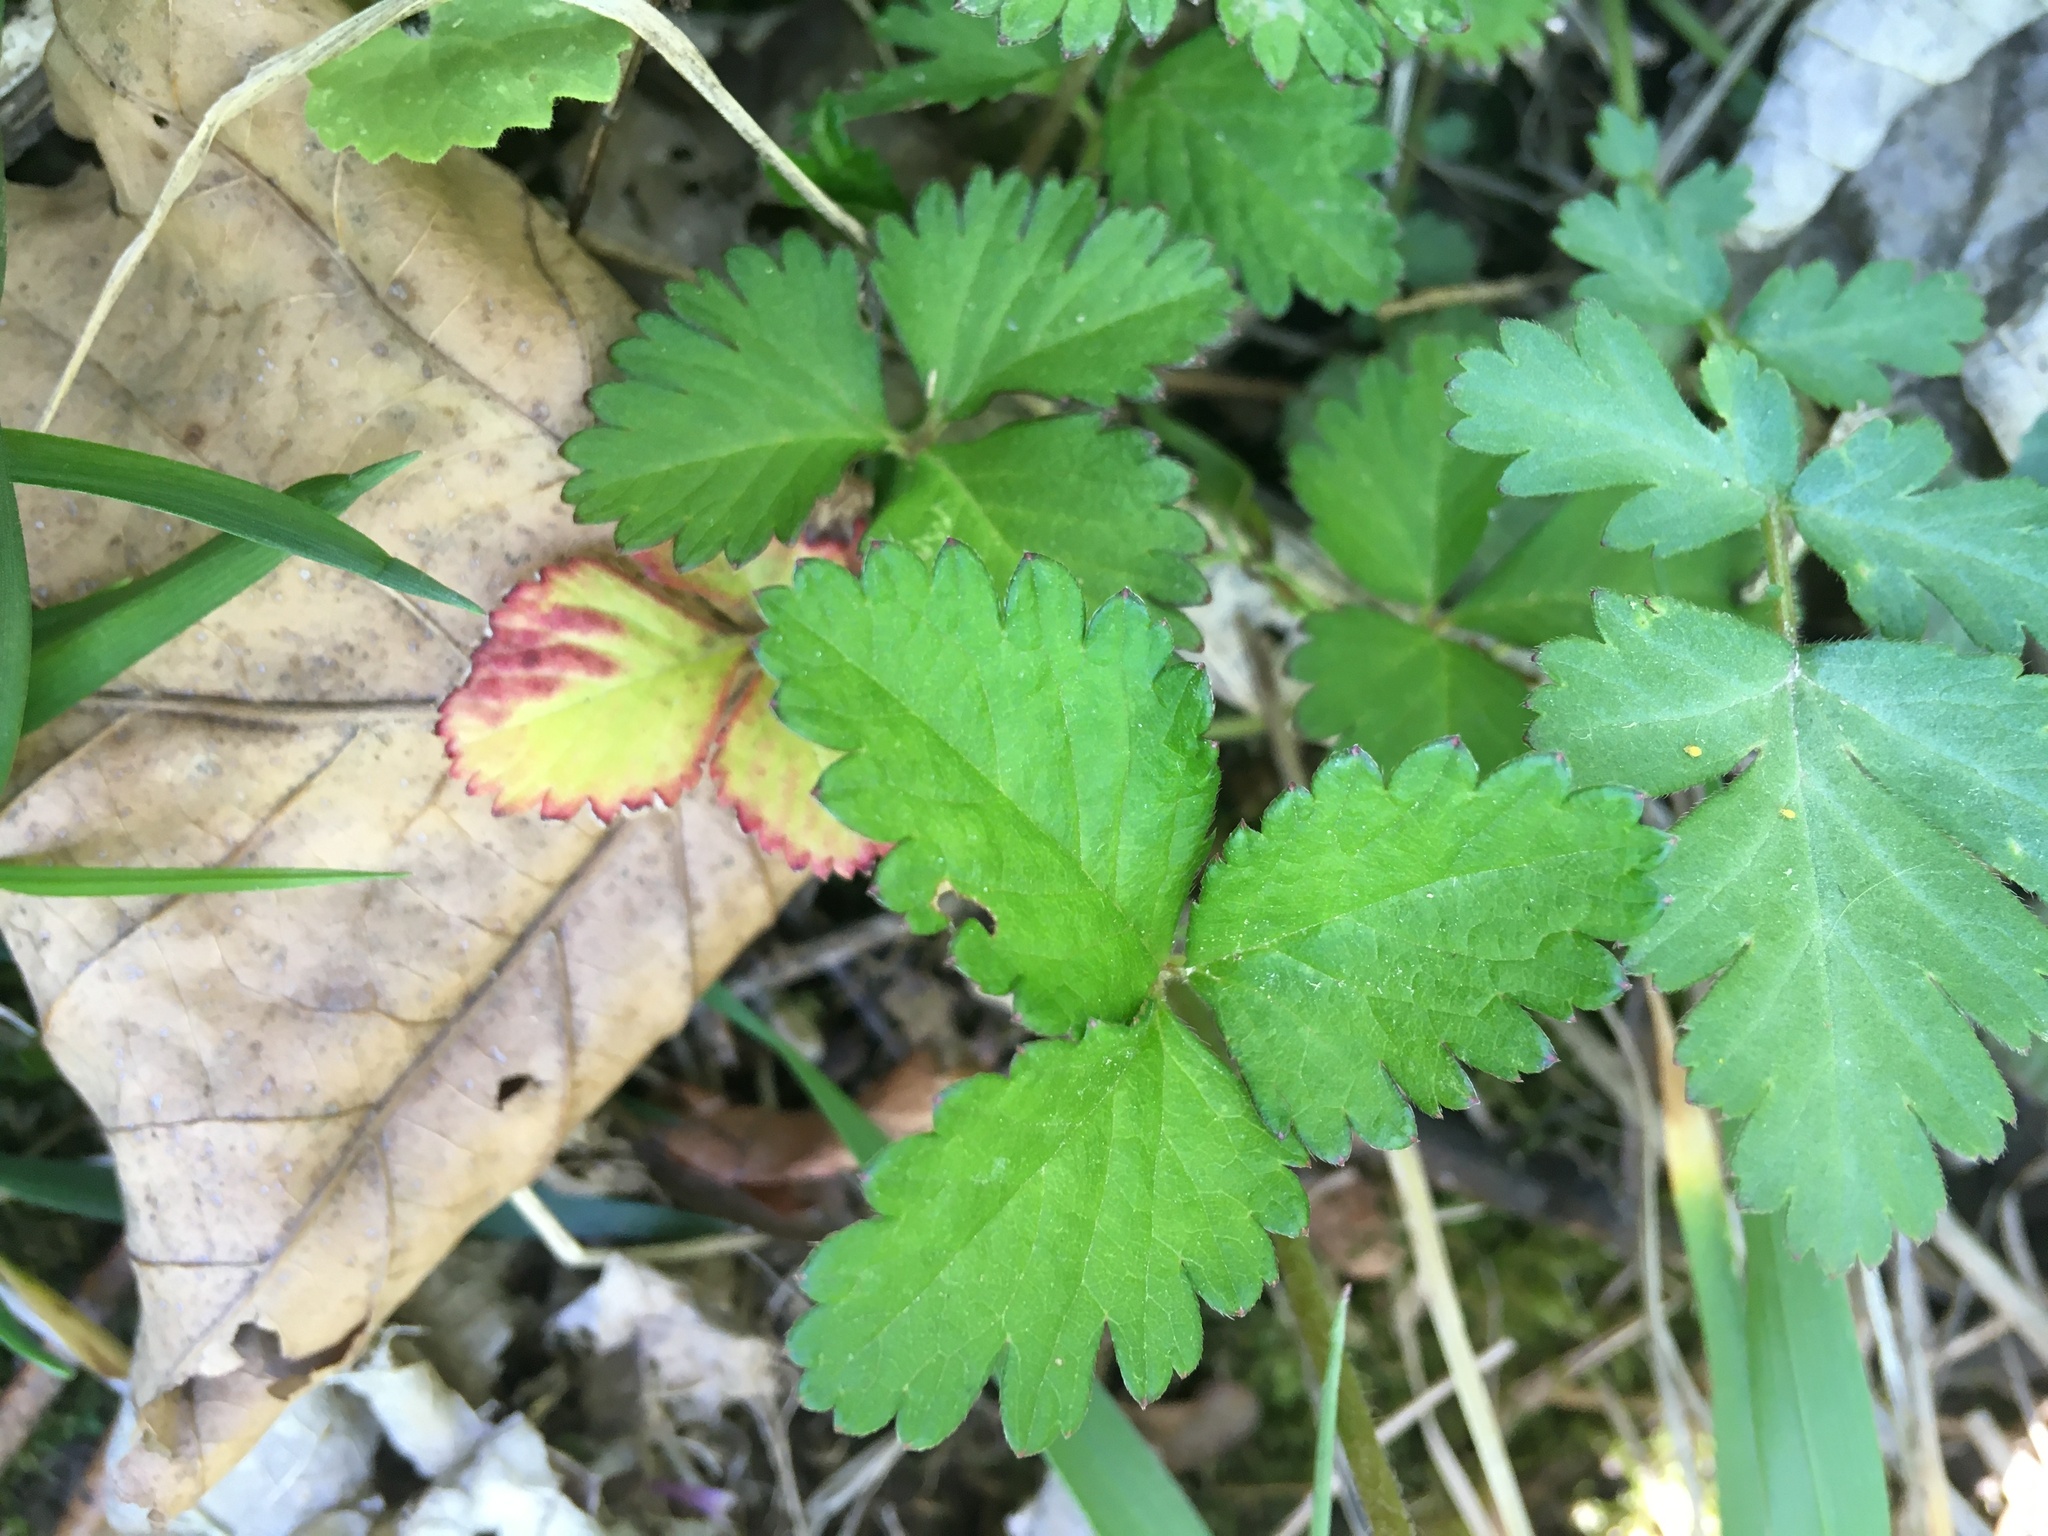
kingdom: Plantae
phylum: Tracheophyta
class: Magnoliopsida
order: Rosales
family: Rosaceae
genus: Potentilla
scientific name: Potentilla indica
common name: Yellow-flowered strawberry
